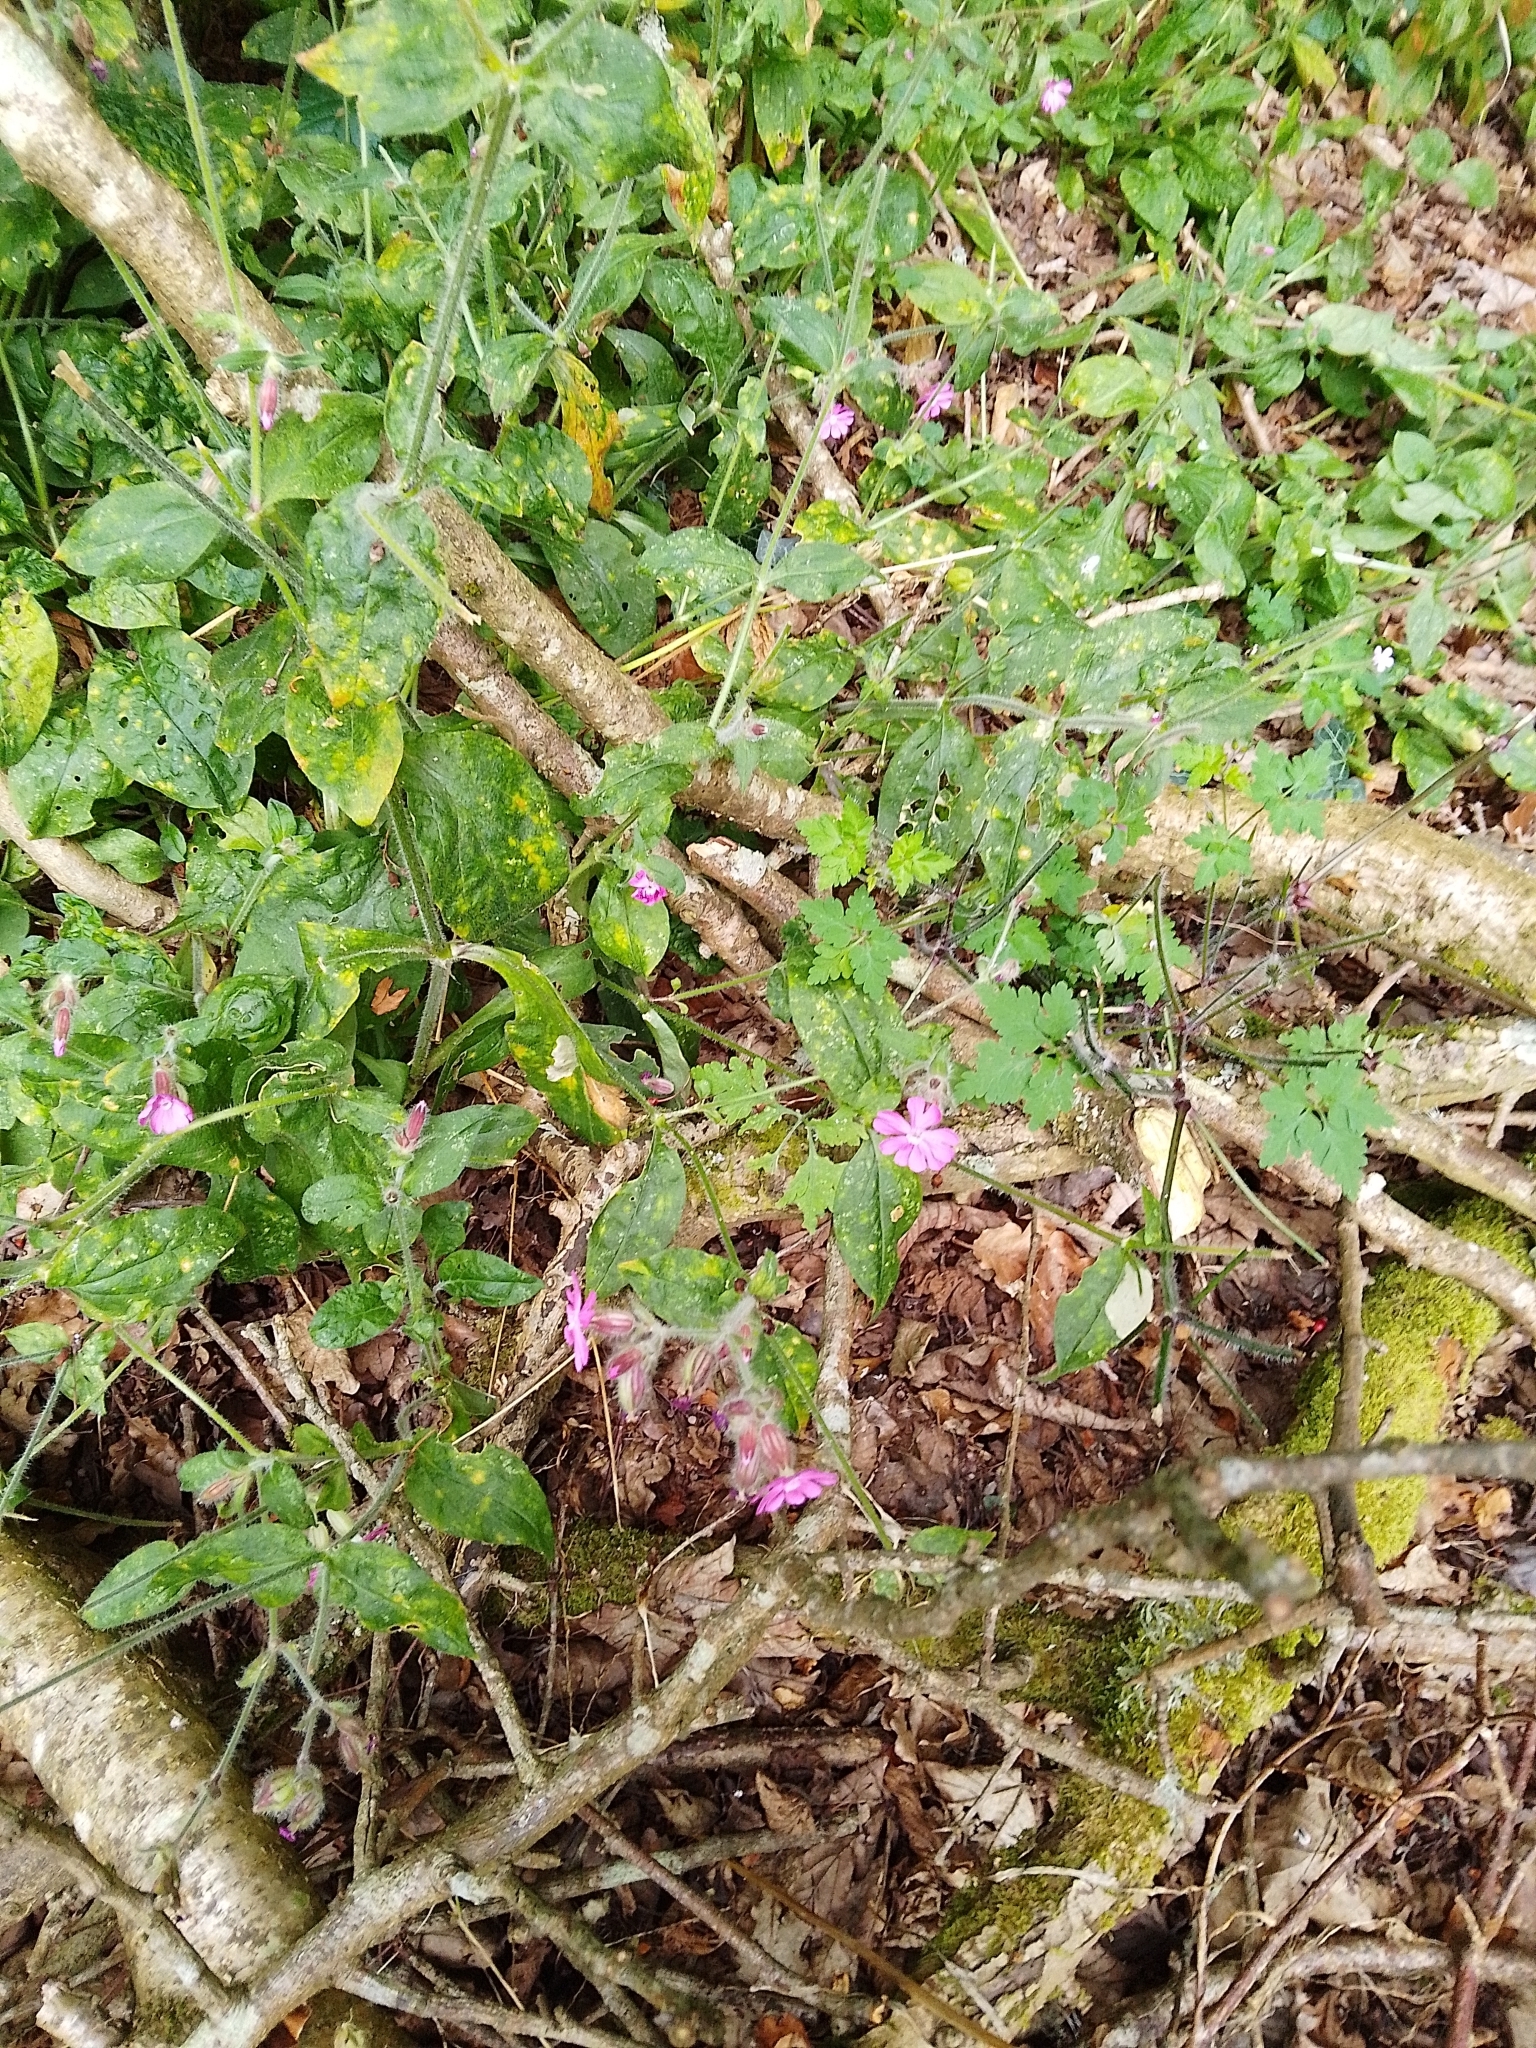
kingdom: Plantae
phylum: Tracheophyta
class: Magnoliopsida
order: Caryophyllales
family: Caryophyllaceae
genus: Silene
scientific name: Silene dioica
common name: Red campion
